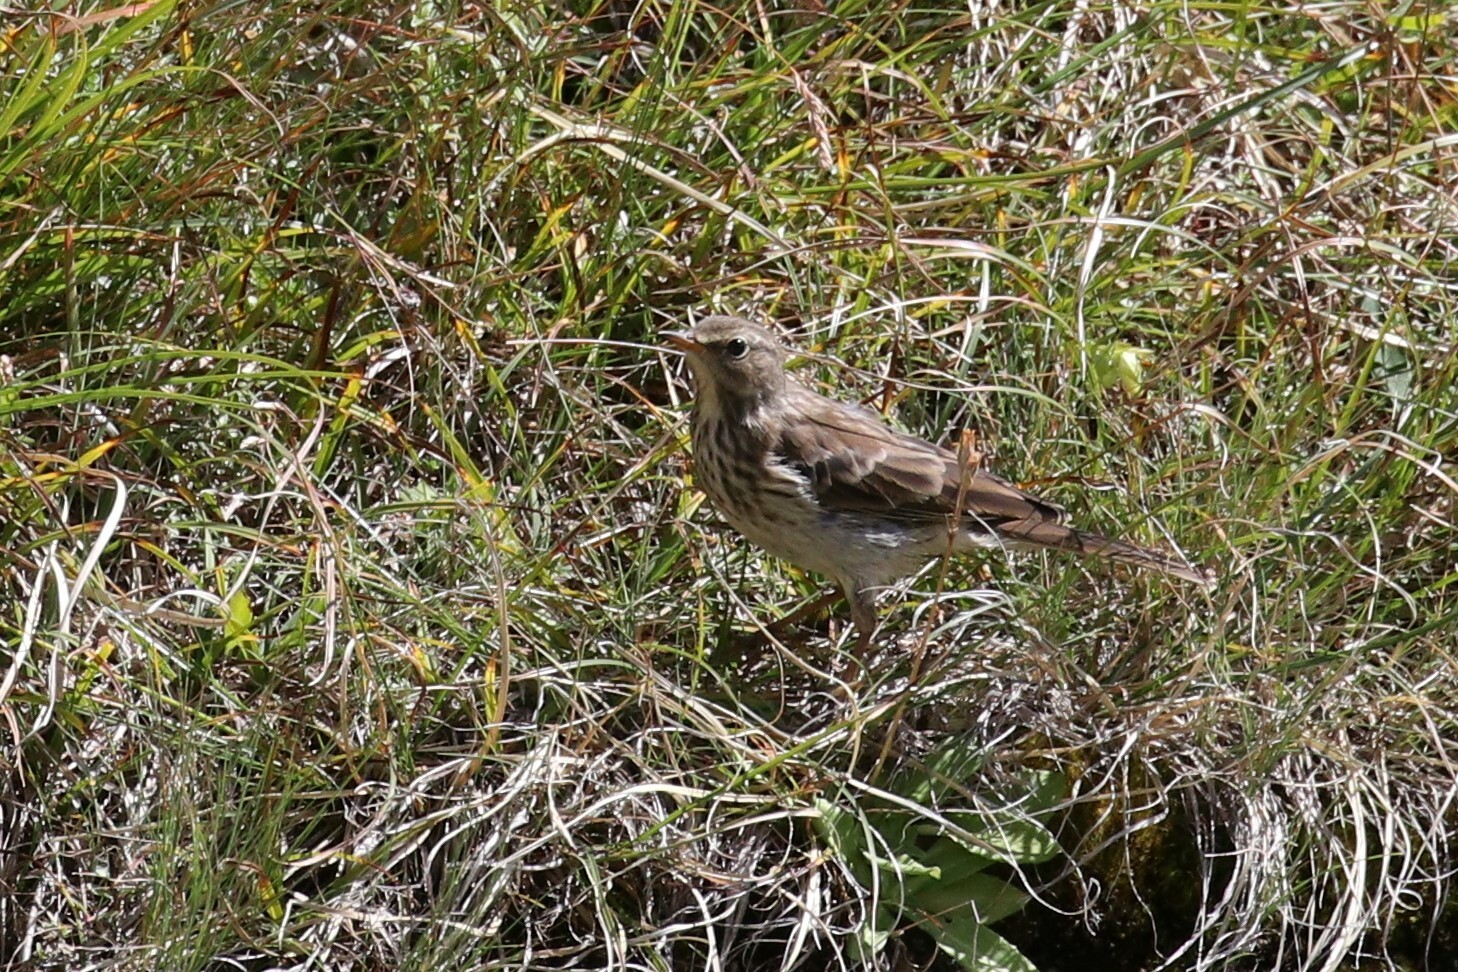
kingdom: Animalia
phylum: Chordata
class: Aves
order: Passeriformes
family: Motacillidae
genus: Anthus
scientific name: Anthus spinoletta
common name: Water pipit
